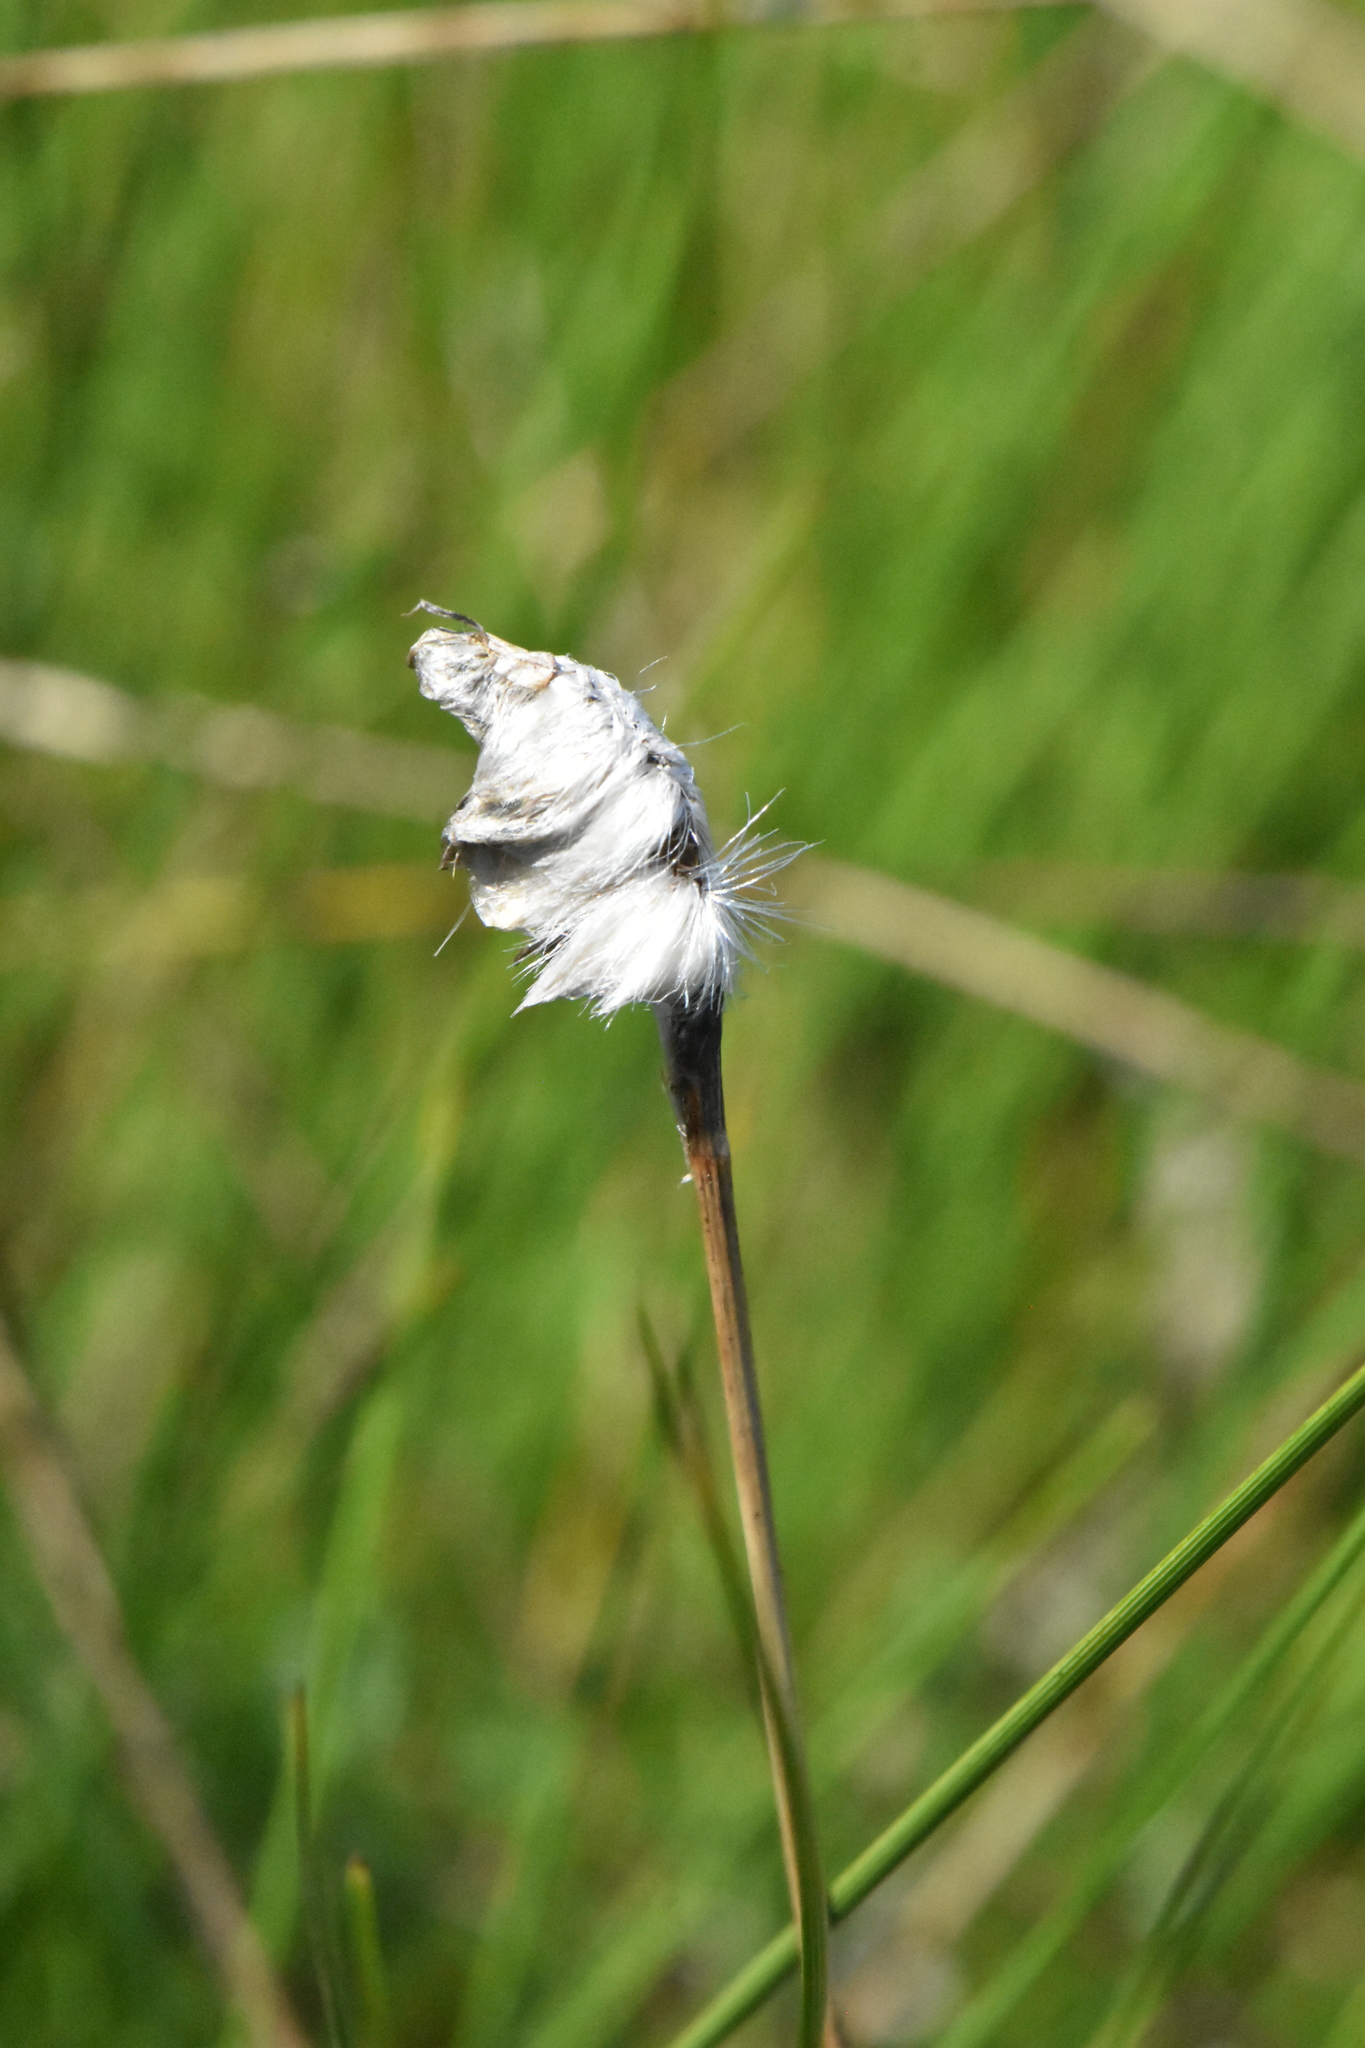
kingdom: Plantae
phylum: Tracheophyta
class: Liliopsida
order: Poales
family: Cyperaceae
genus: Eriophorum
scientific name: Eriophorum vaginatum
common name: Hare's-tail cottongrass
